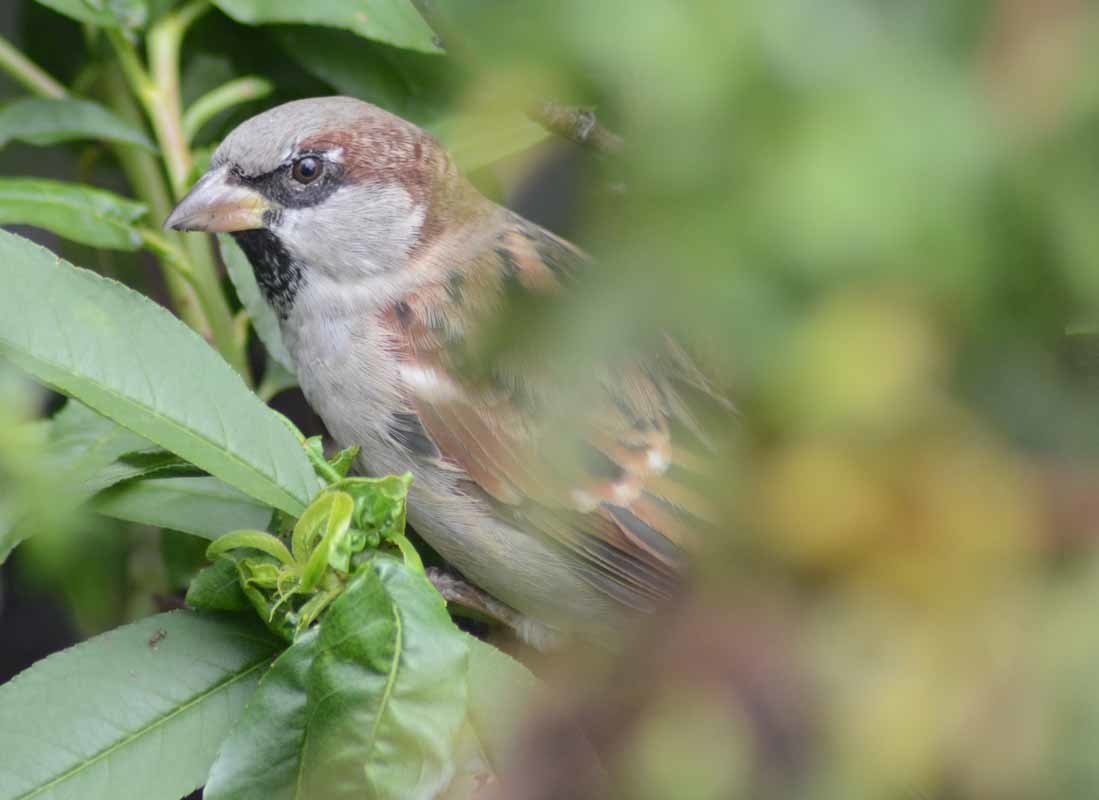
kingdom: Animalia
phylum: Chordata
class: Aves
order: Passeriformes
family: Passeridae
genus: Passer
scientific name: Passer domesticus
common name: House sparrow
